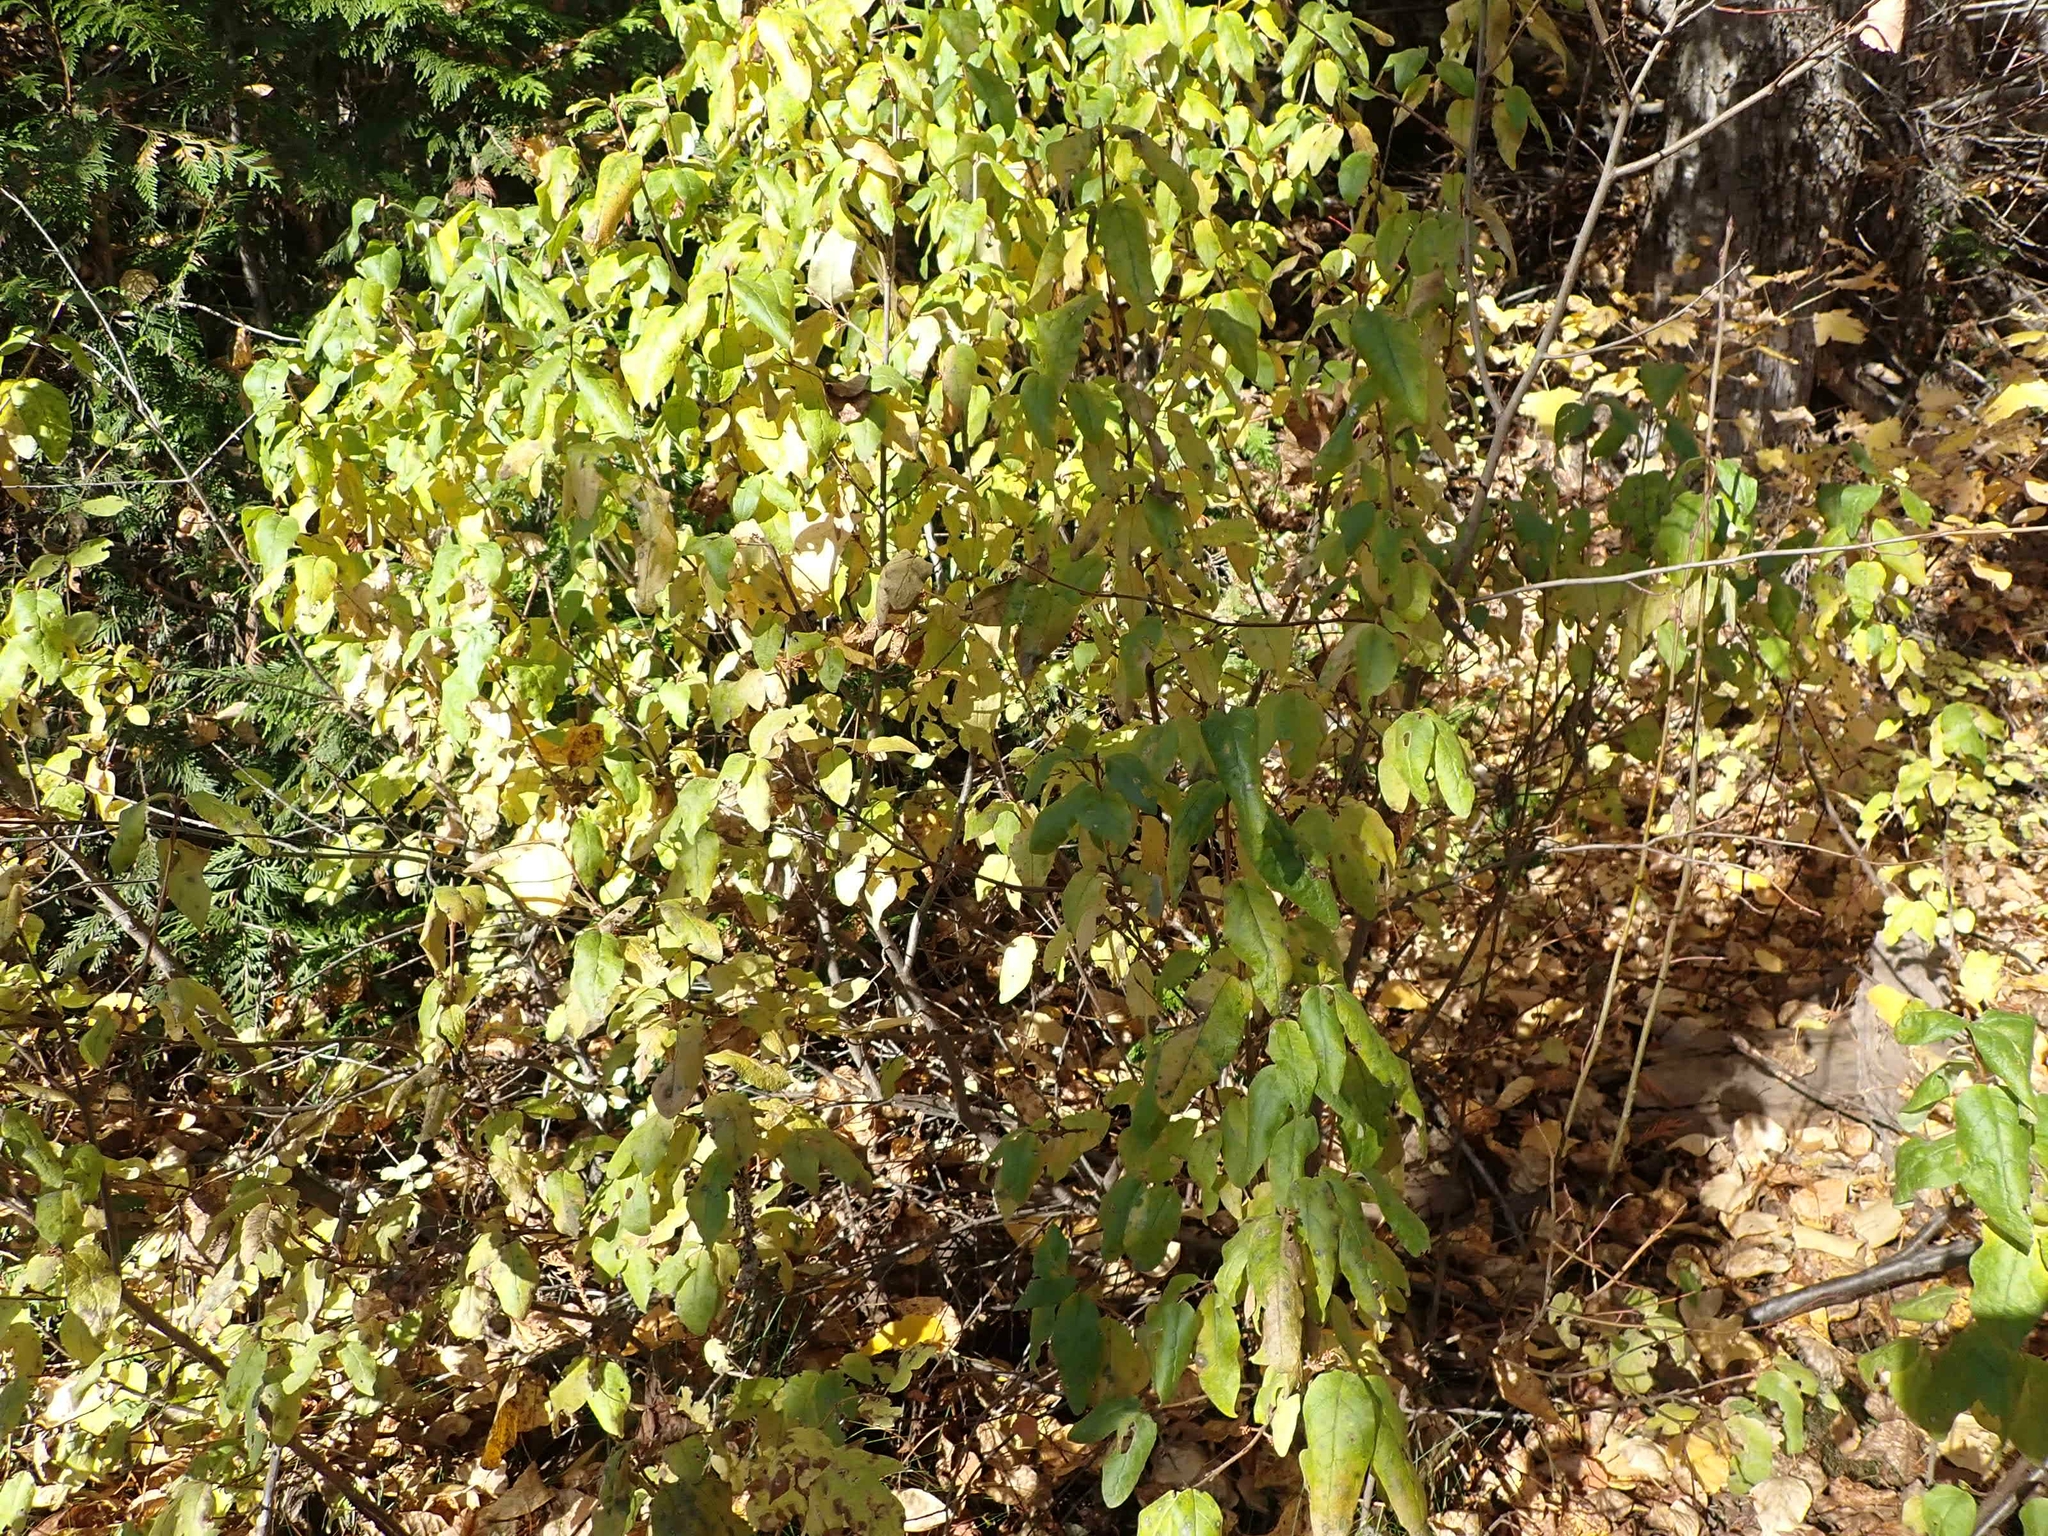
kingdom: Plantae
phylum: Tracheophyta
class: Magnoliopsida
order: Rosales
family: Elaeagnaceae
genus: Shepherdia
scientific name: Shepherdia canadensis
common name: Soapberry
